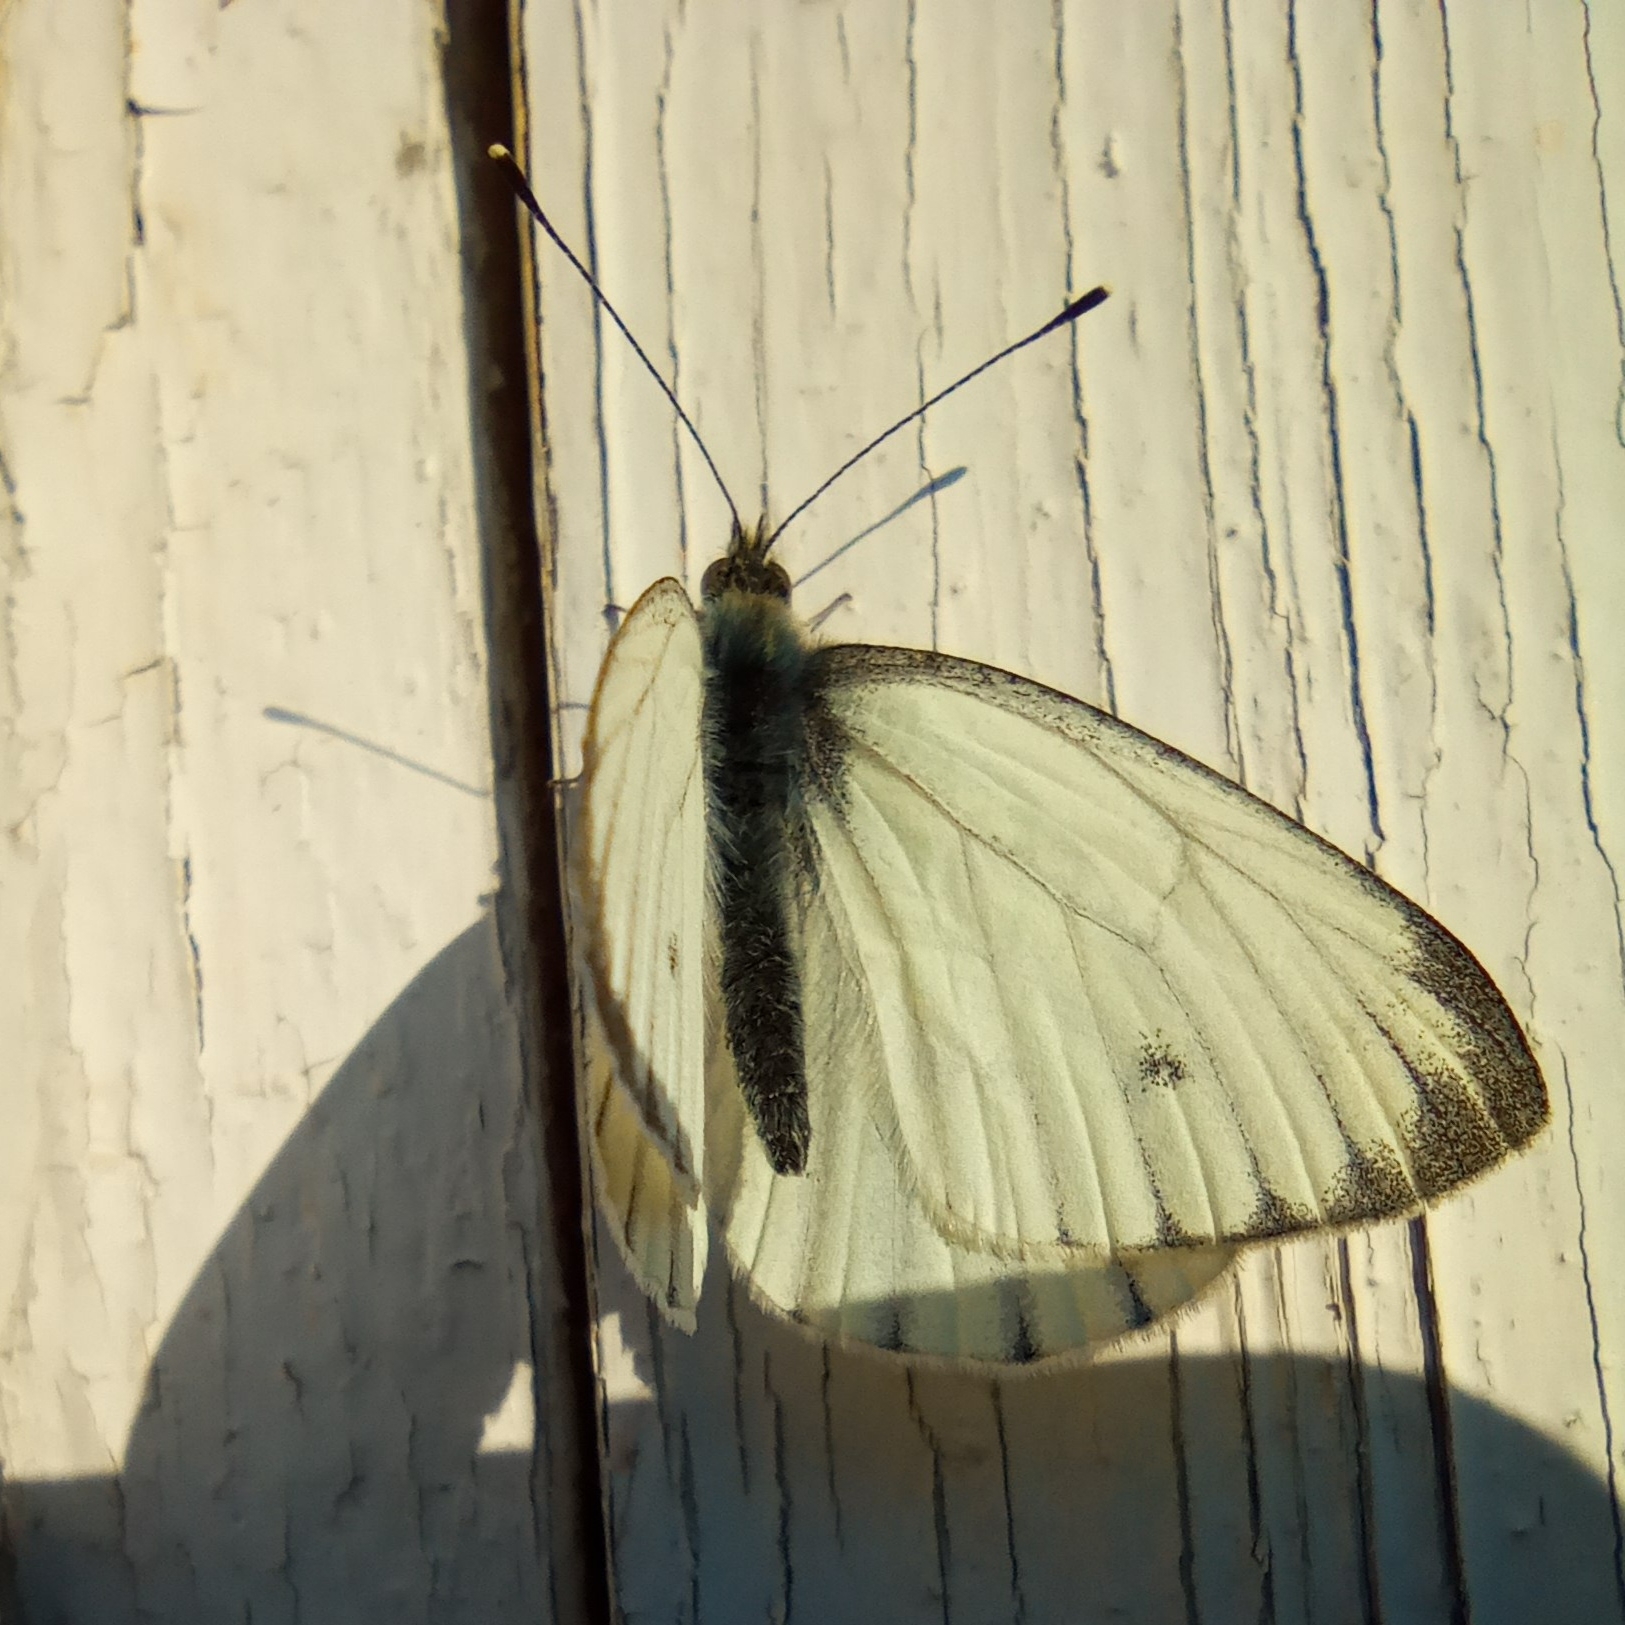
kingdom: Animalia
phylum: Arthropoda
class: Insecta
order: Lepidoptera
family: Pieridae
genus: Pieris
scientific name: Pieris napi
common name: Green-veined white
